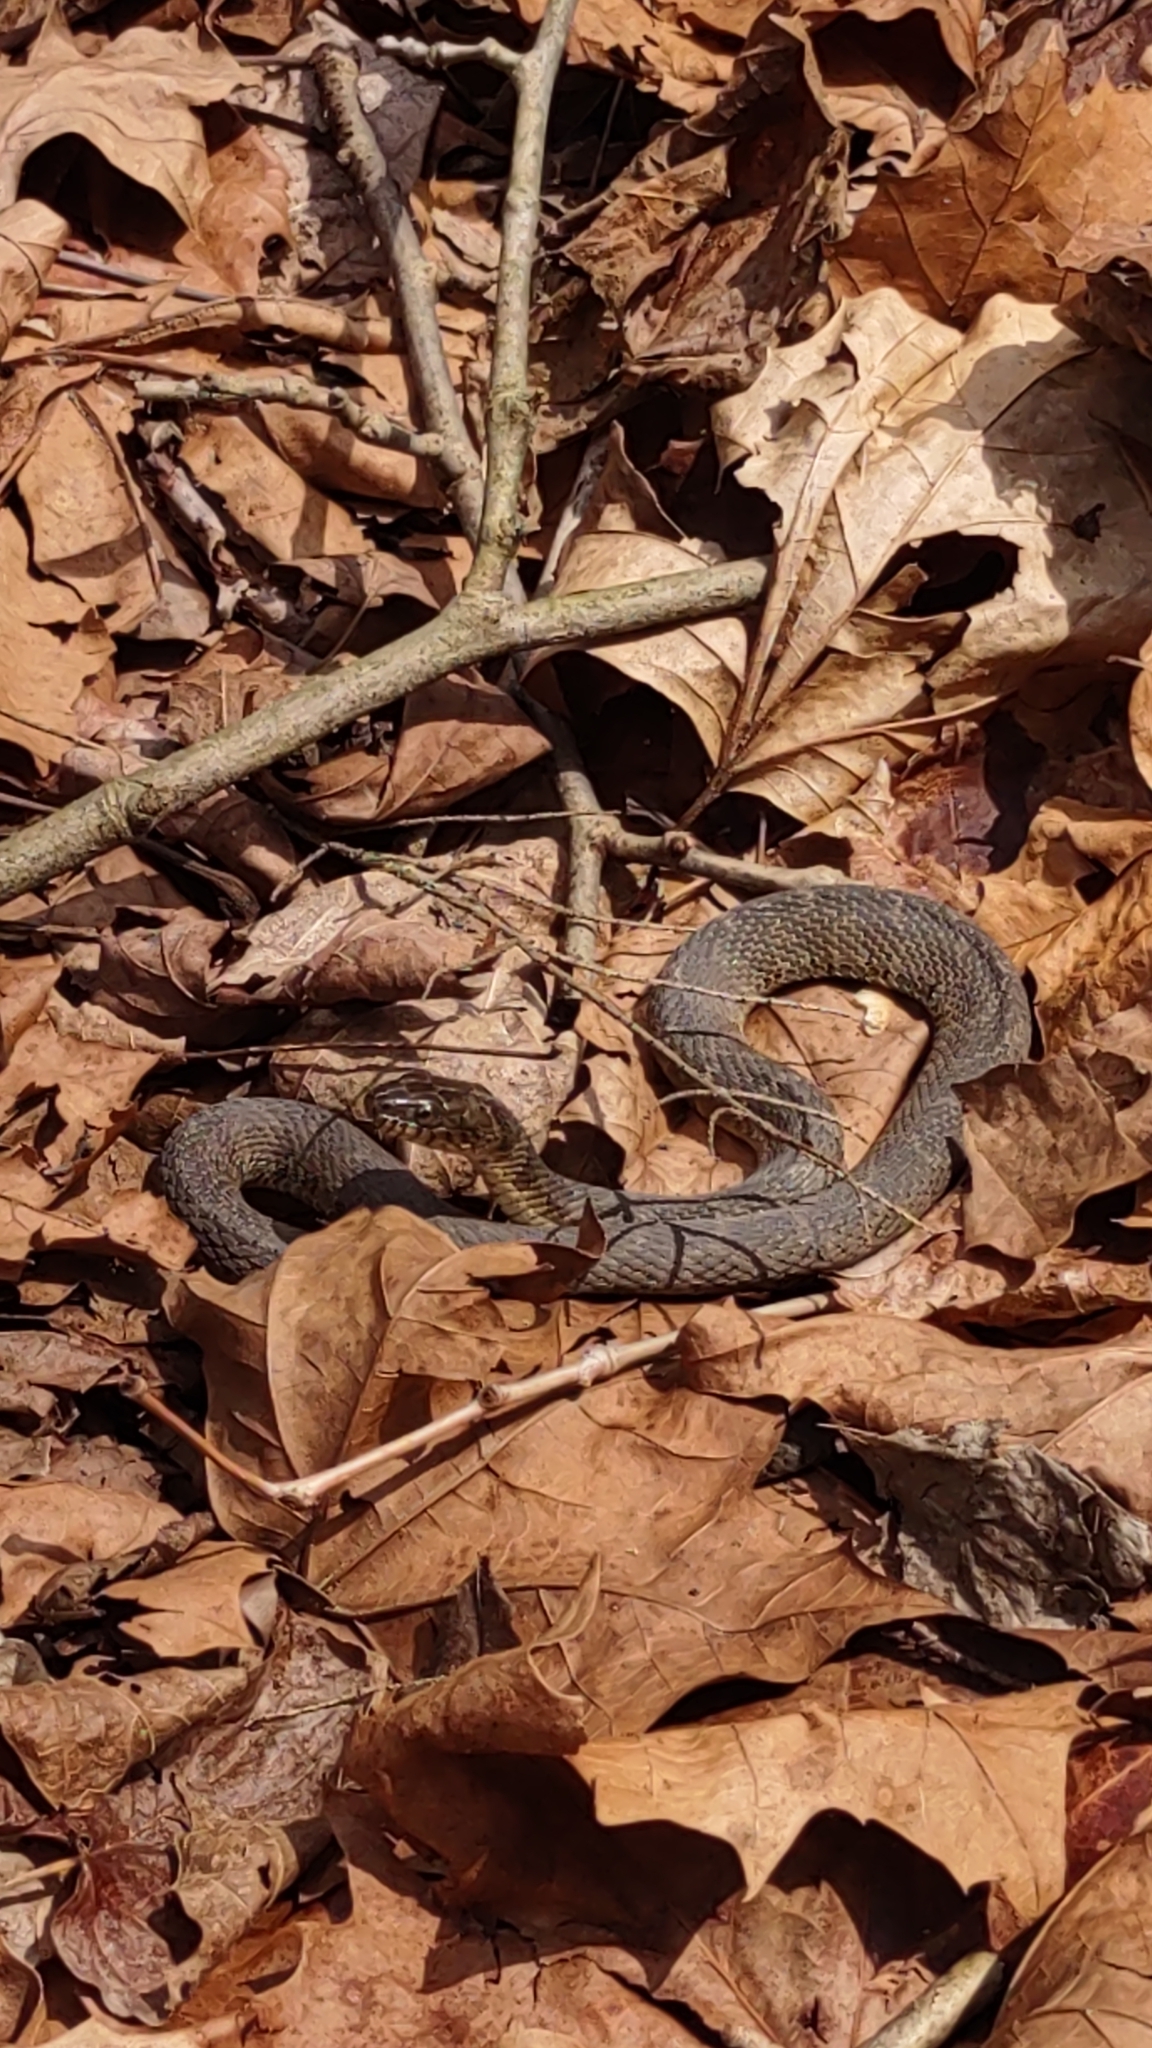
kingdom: Animalia
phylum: Chordata
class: Squamata
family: Colubridae
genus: Nerodia
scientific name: Nerodia sipedon
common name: Northern water snake
